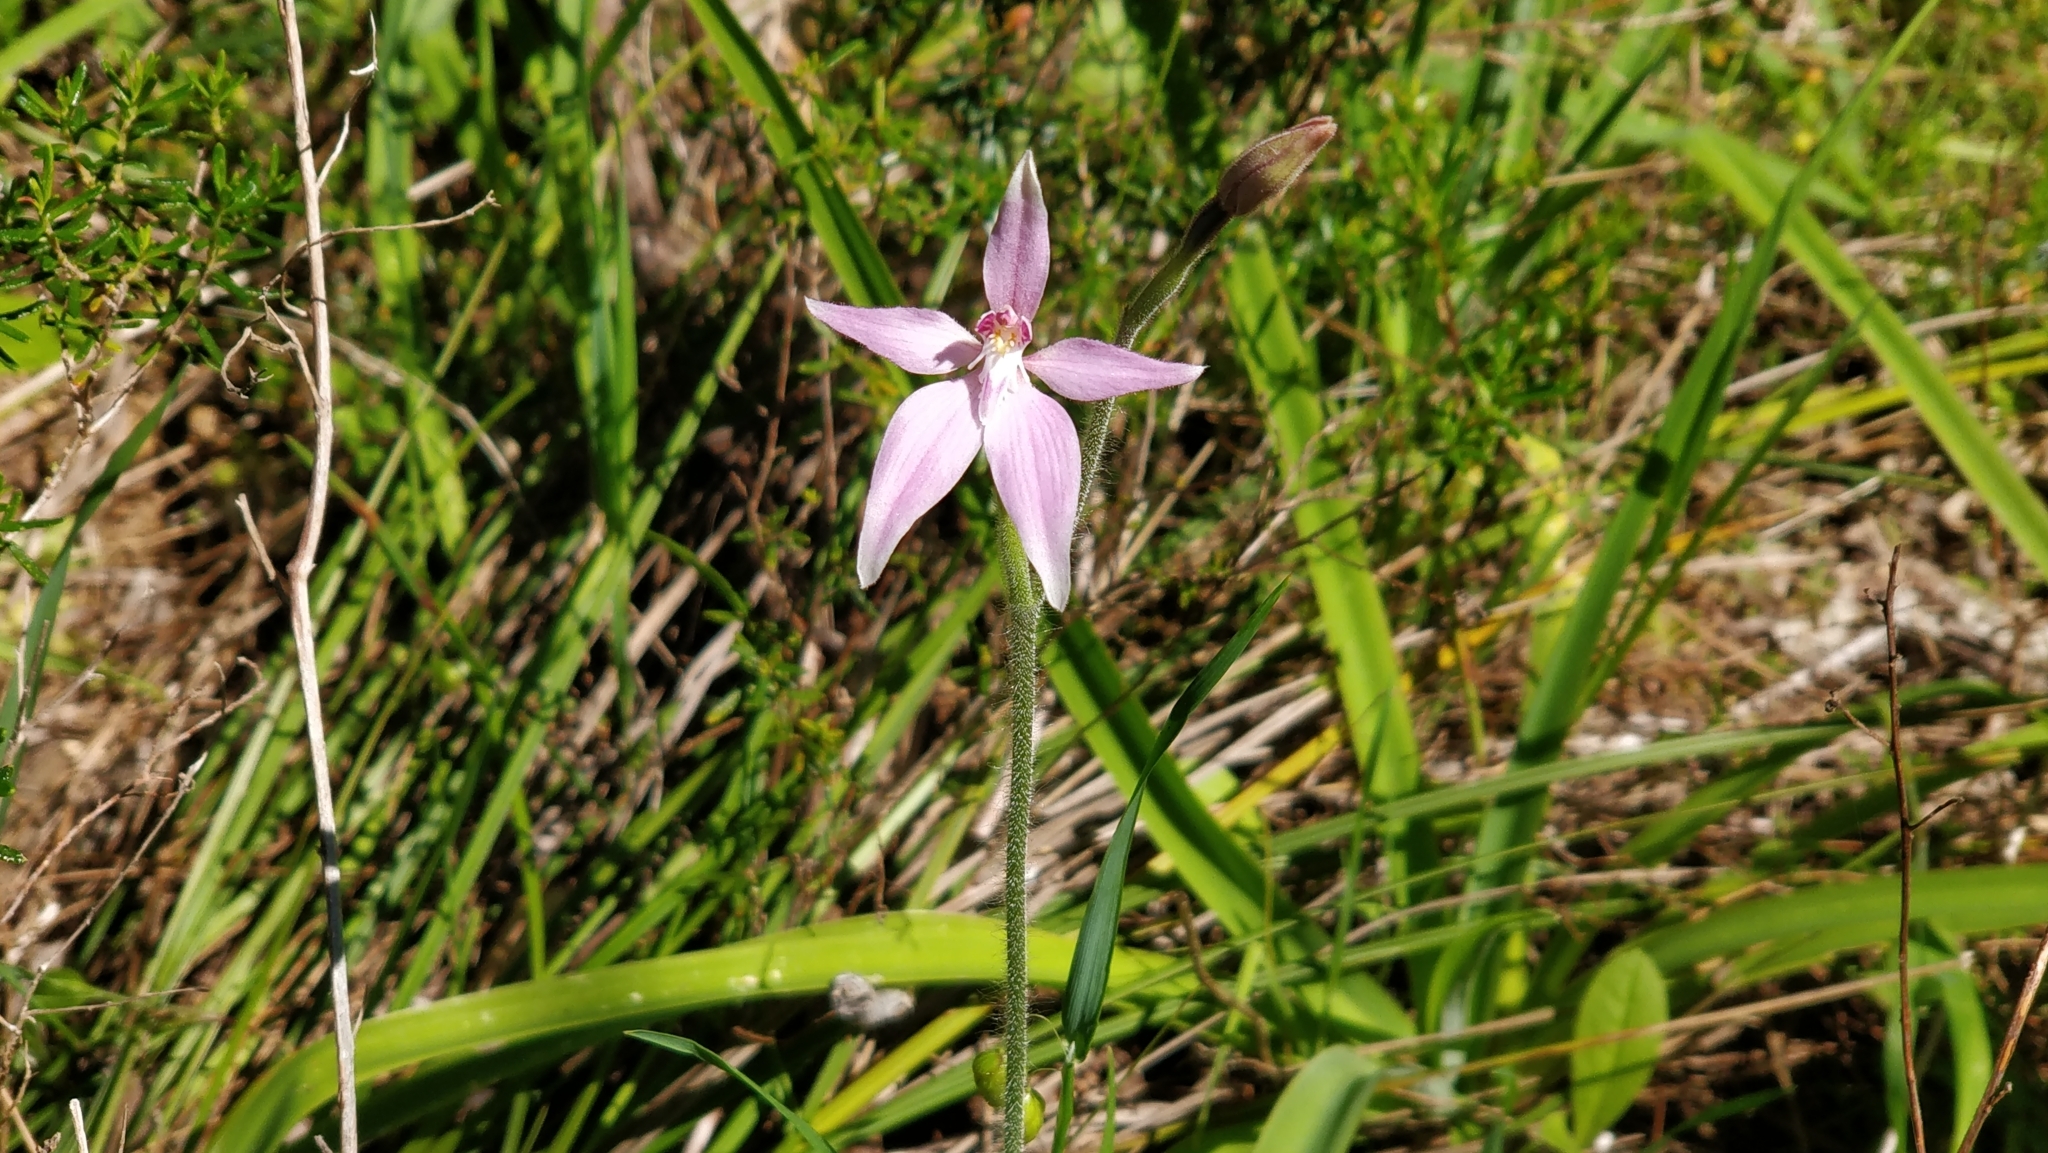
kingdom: Plantae
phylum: Tracheophyta
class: Liliopsida
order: Asparagales
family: Orchidaceae
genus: Caladenia
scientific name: Caladenia latifolia
